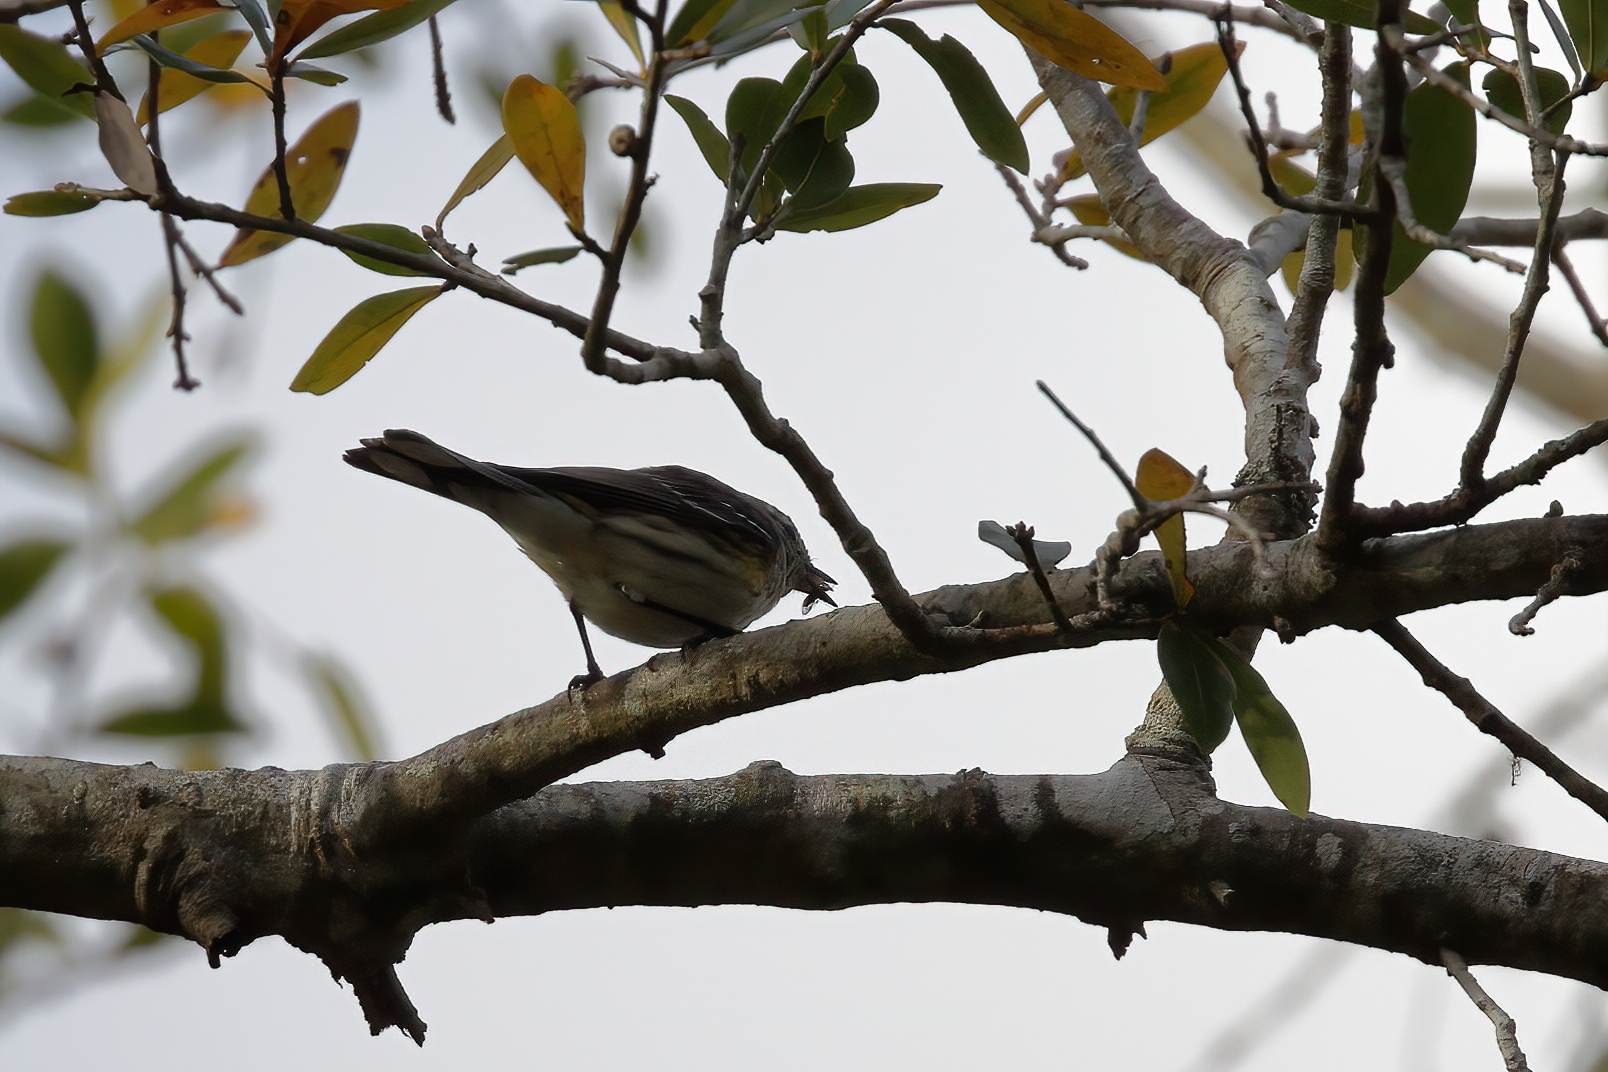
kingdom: Animalia
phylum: Chordata
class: Aves
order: Passeriformes
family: Parulidae
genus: Setophaga
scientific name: Setophaga coronata
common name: Myrtle warbler
